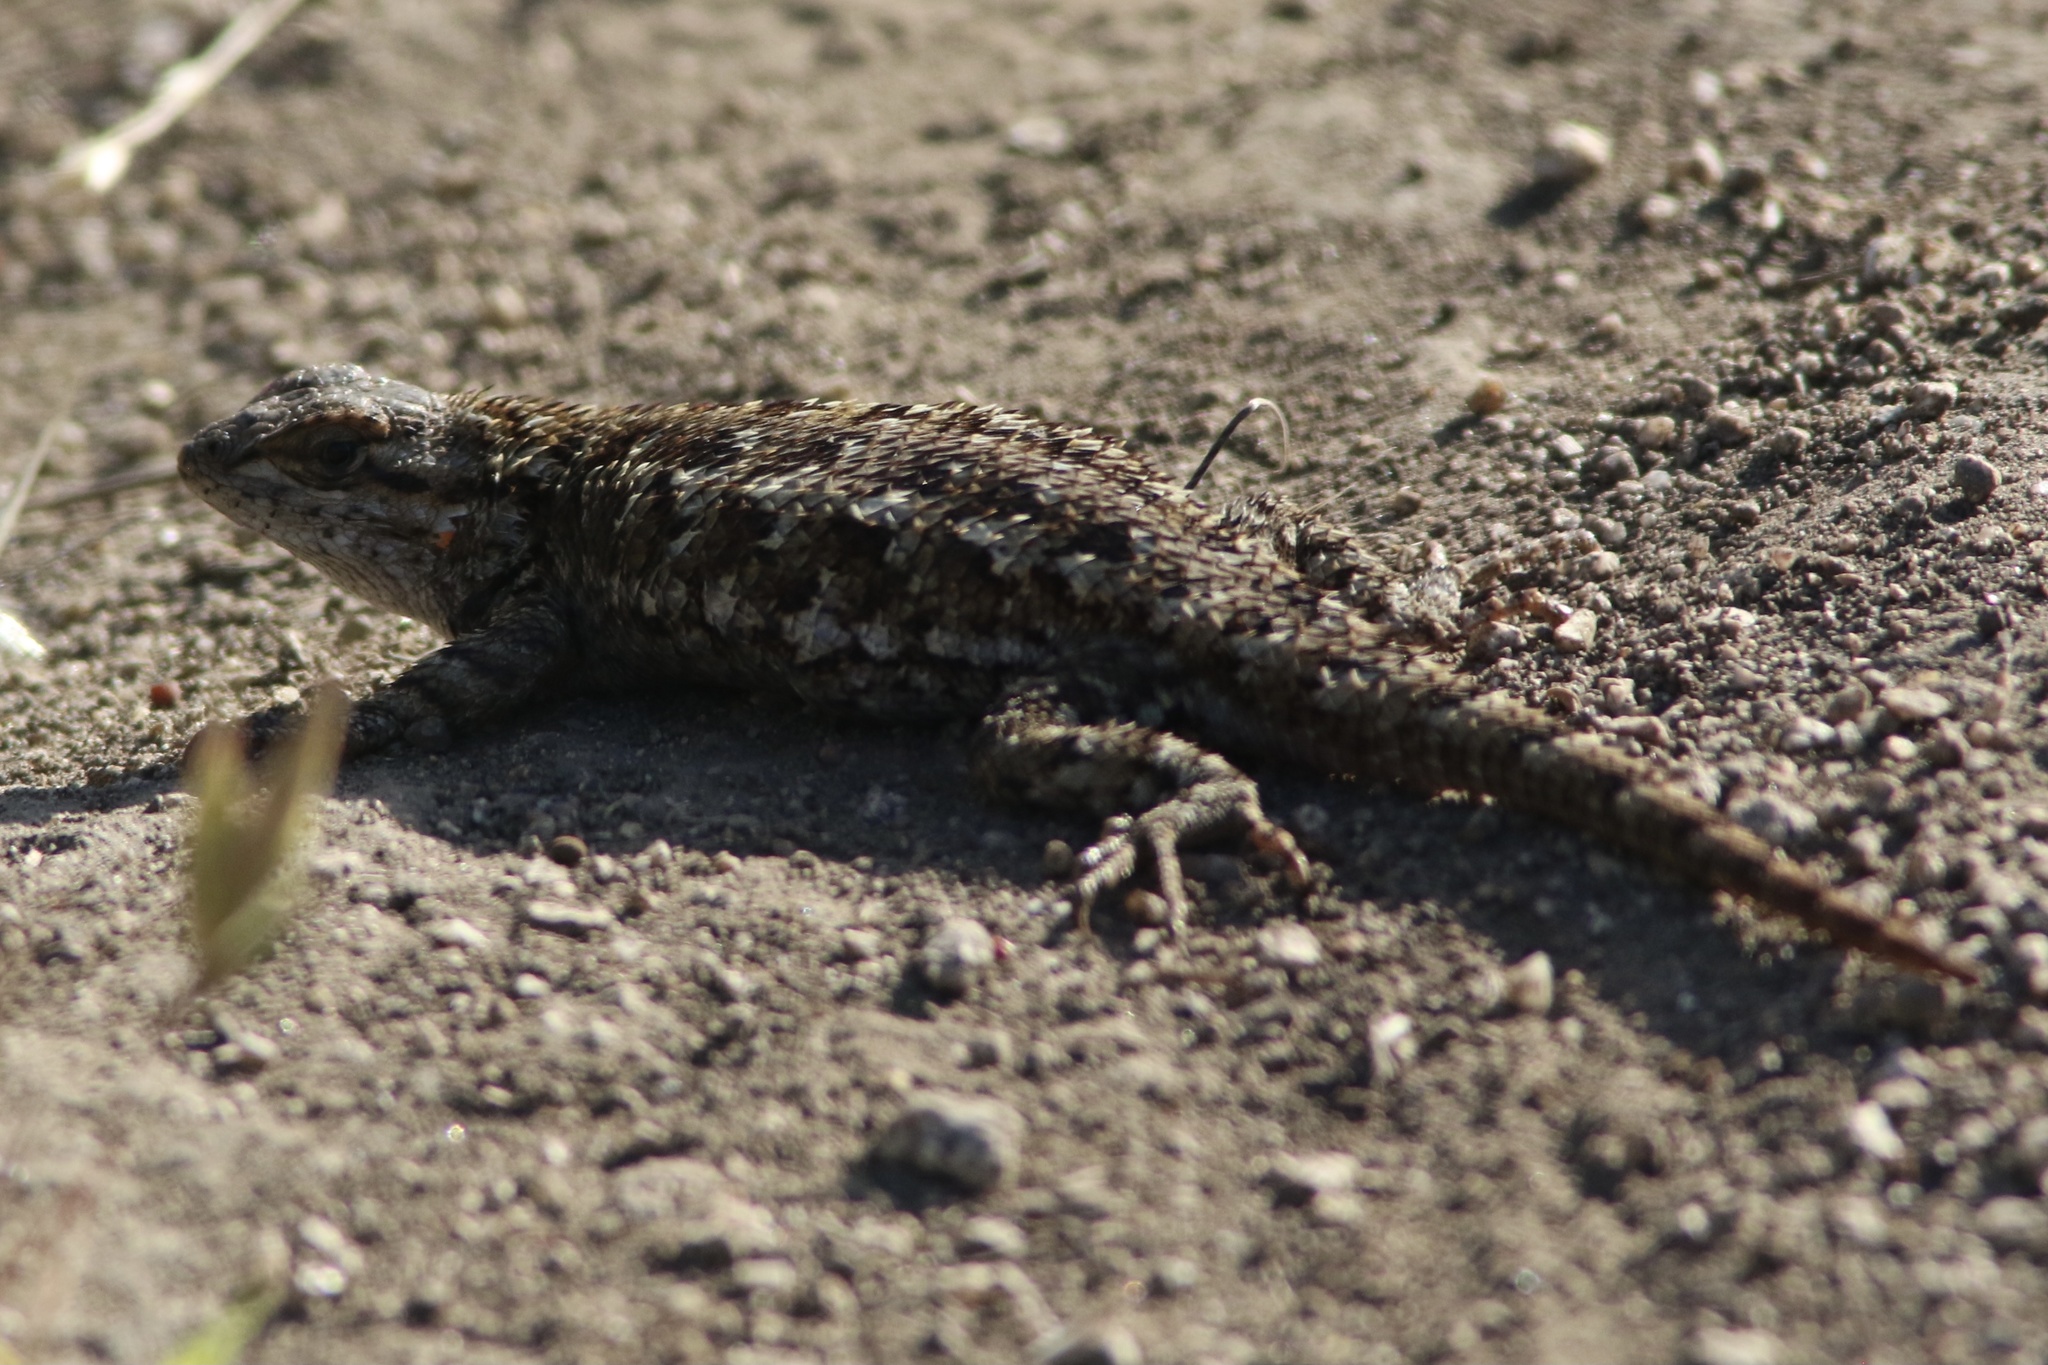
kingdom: Animalia
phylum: Chordata
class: Squamata
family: Phrynosomatidae
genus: Sceloporus
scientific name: Sceloporus occidentalis
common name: Western fence lizard
